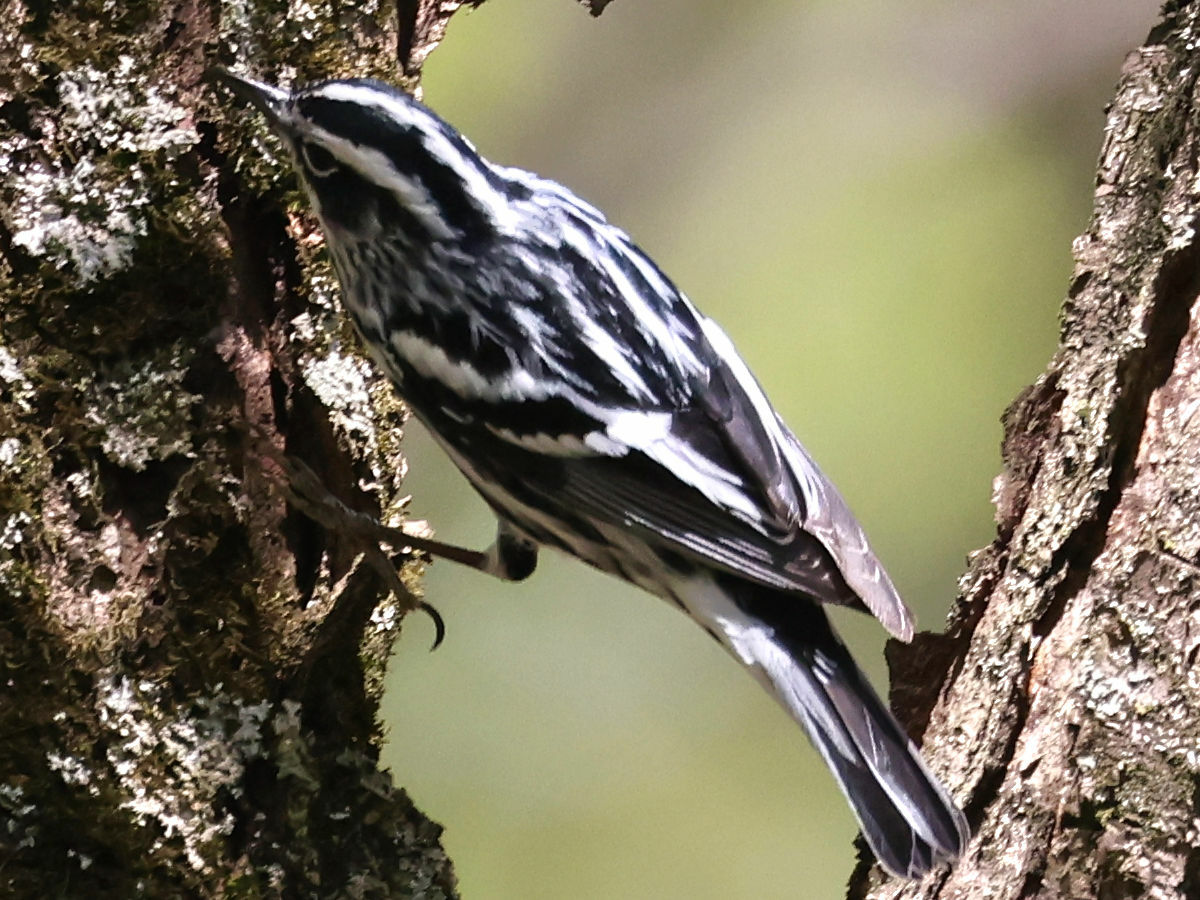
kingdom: Animalia
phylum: Chordata
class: Aves
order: Passeriformes
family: Parulidae
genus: Mniotilta
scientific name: Mniotilta varia
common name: Black-and-white warbler
